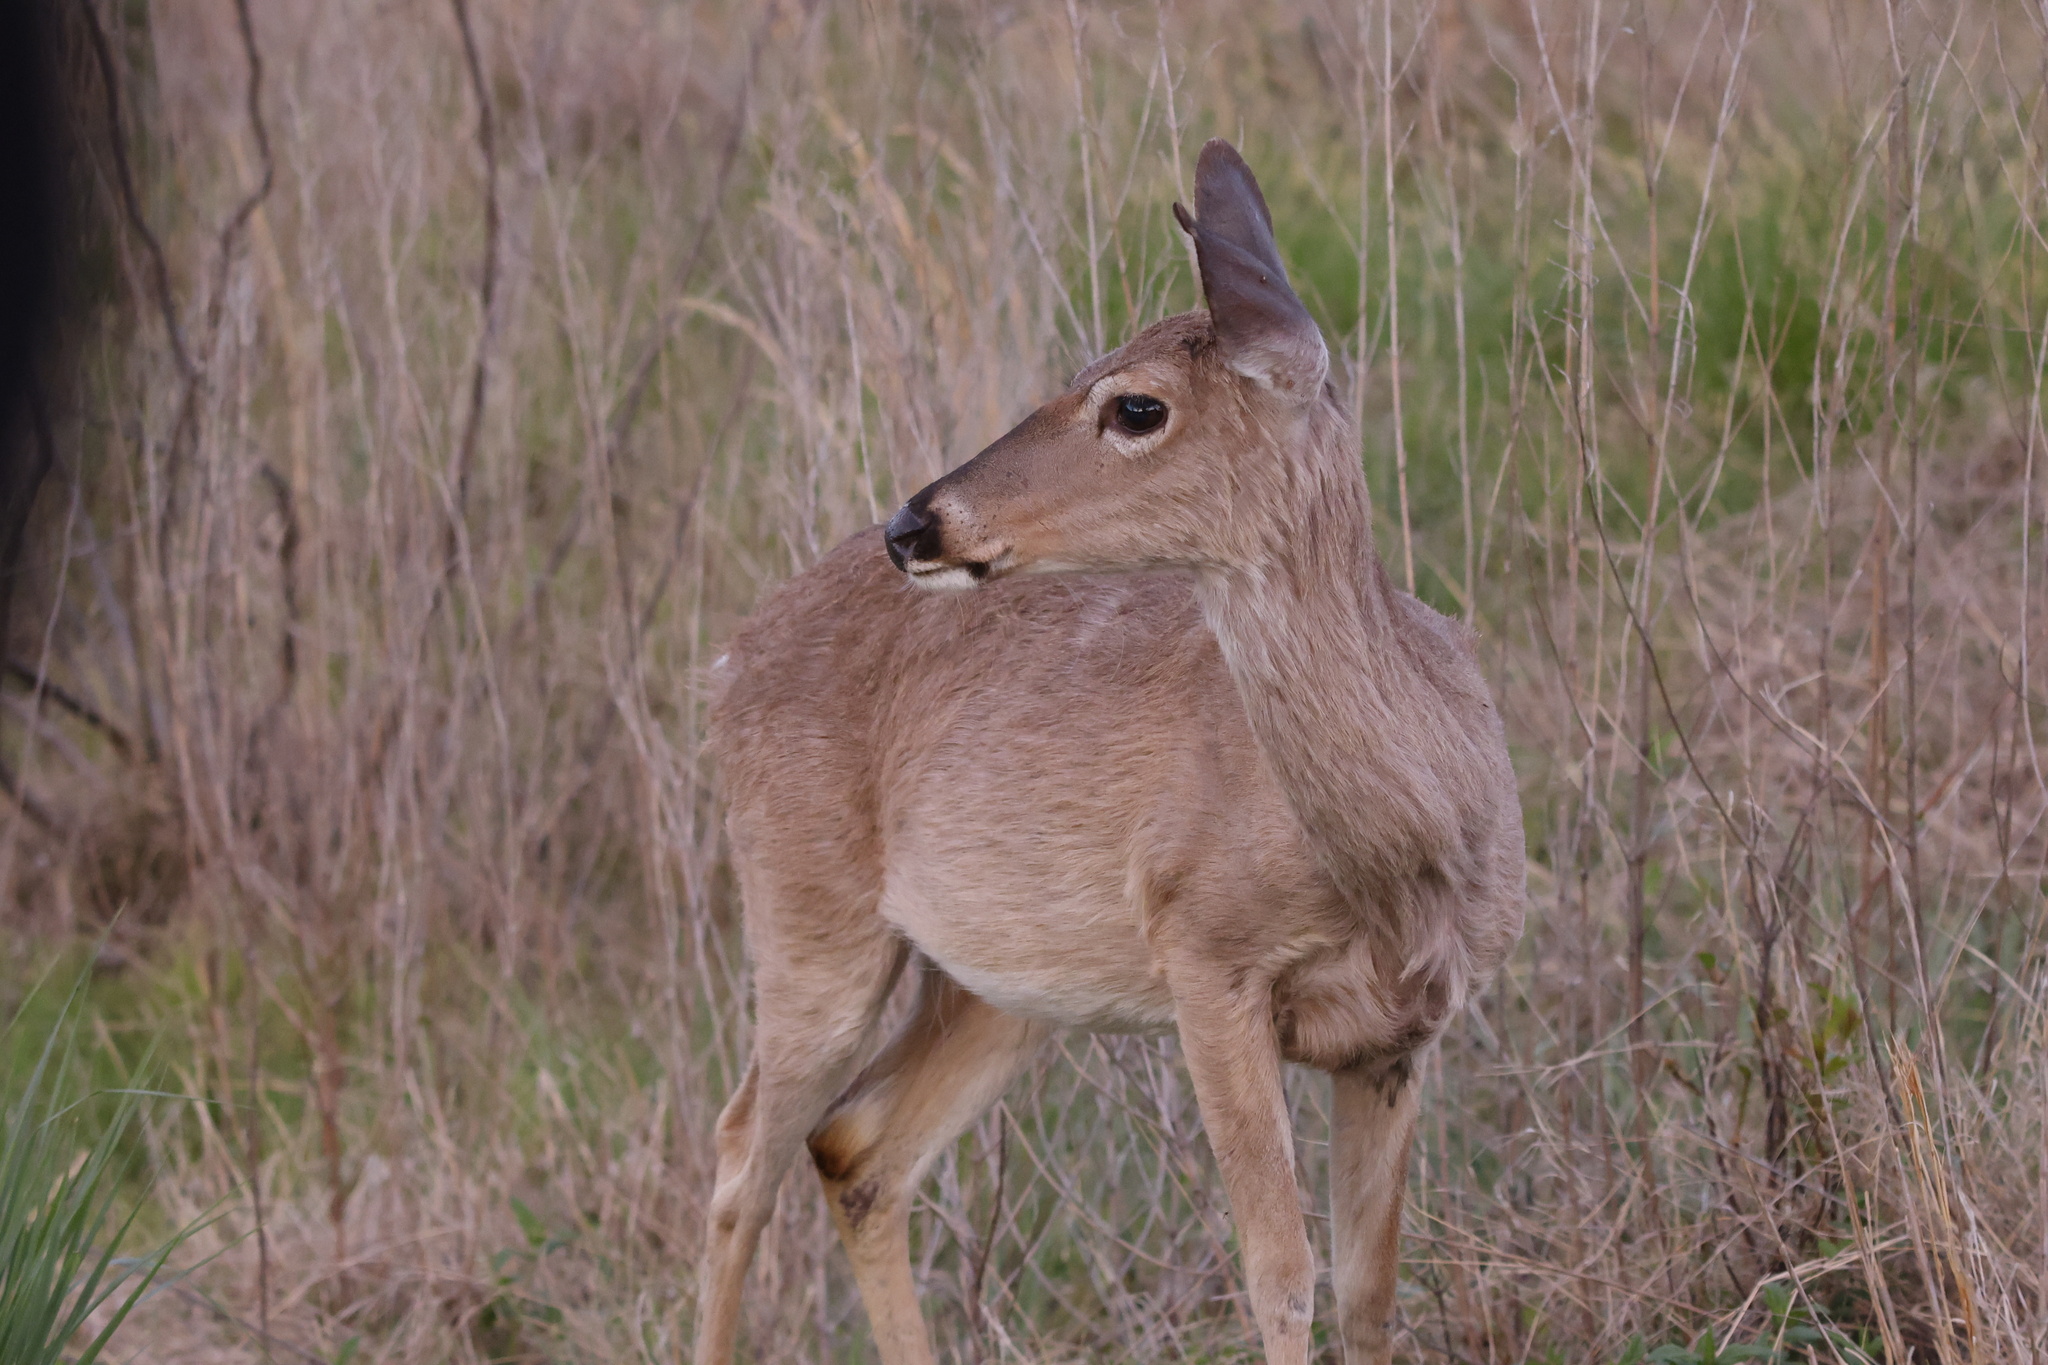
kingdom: Animalia
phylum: Chordata
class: Mammalia
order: Artiodactyla
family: Cervidae
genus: Odocoileus
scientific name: Odocoileus virginianus
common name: White-tailed deer
